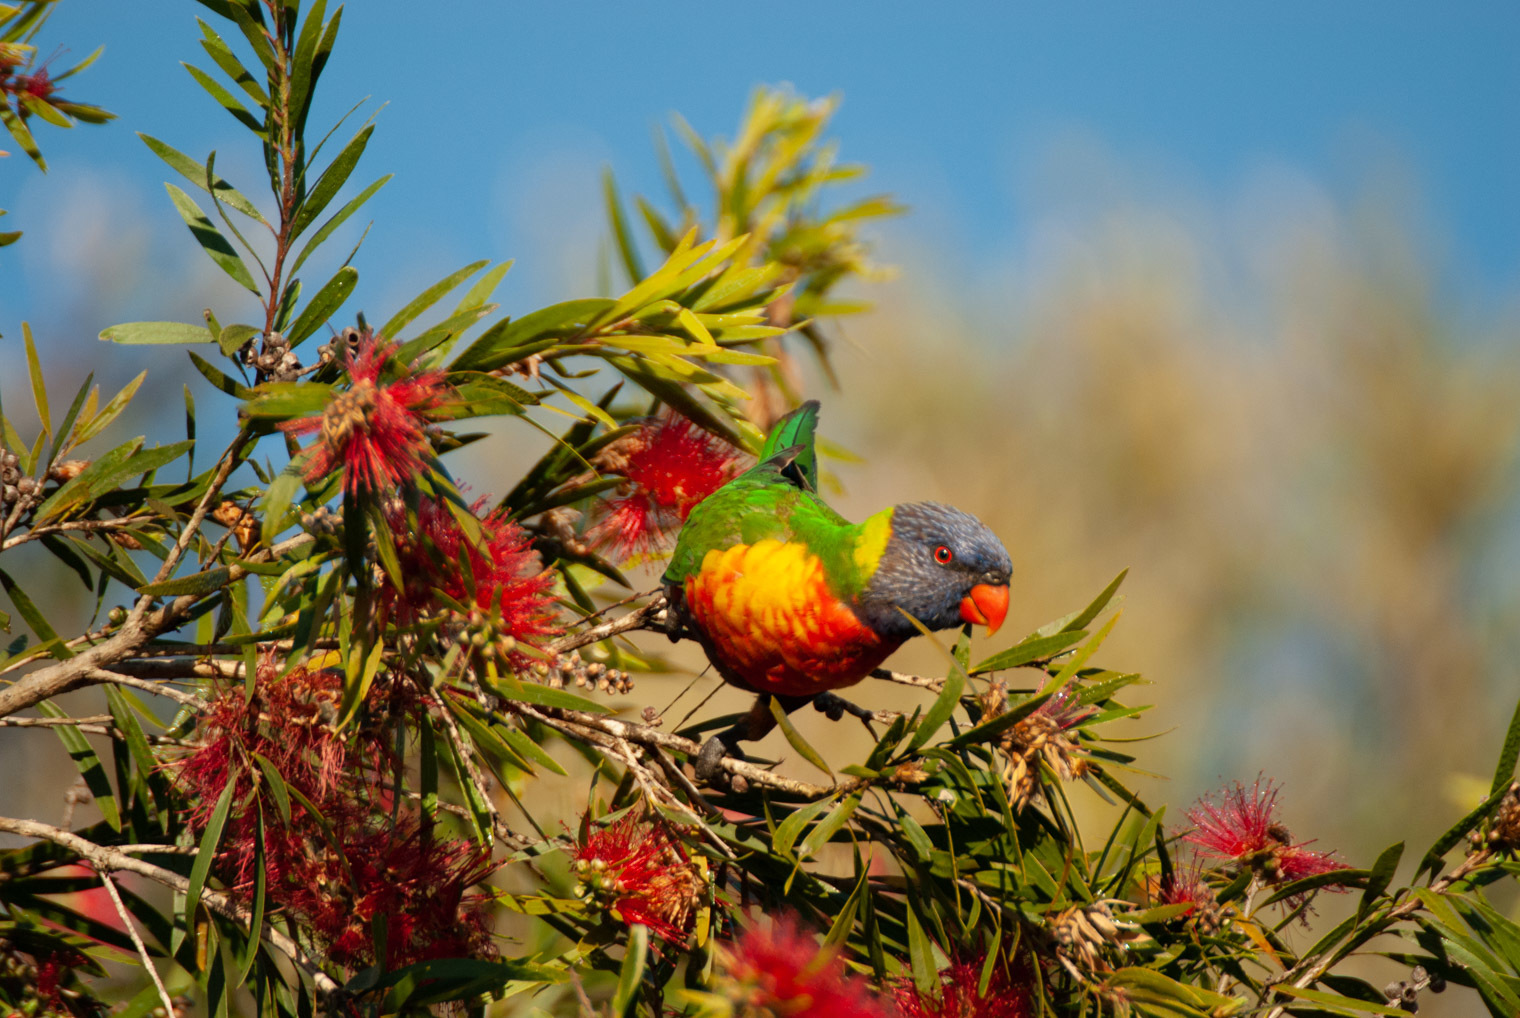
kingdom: Animalia
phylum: Chordata
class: Aves
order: Psittaciformes
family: Psittacidae
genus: Trichoglossus
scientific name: Trichoglossus haematodus
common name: Coconut lorikeet
